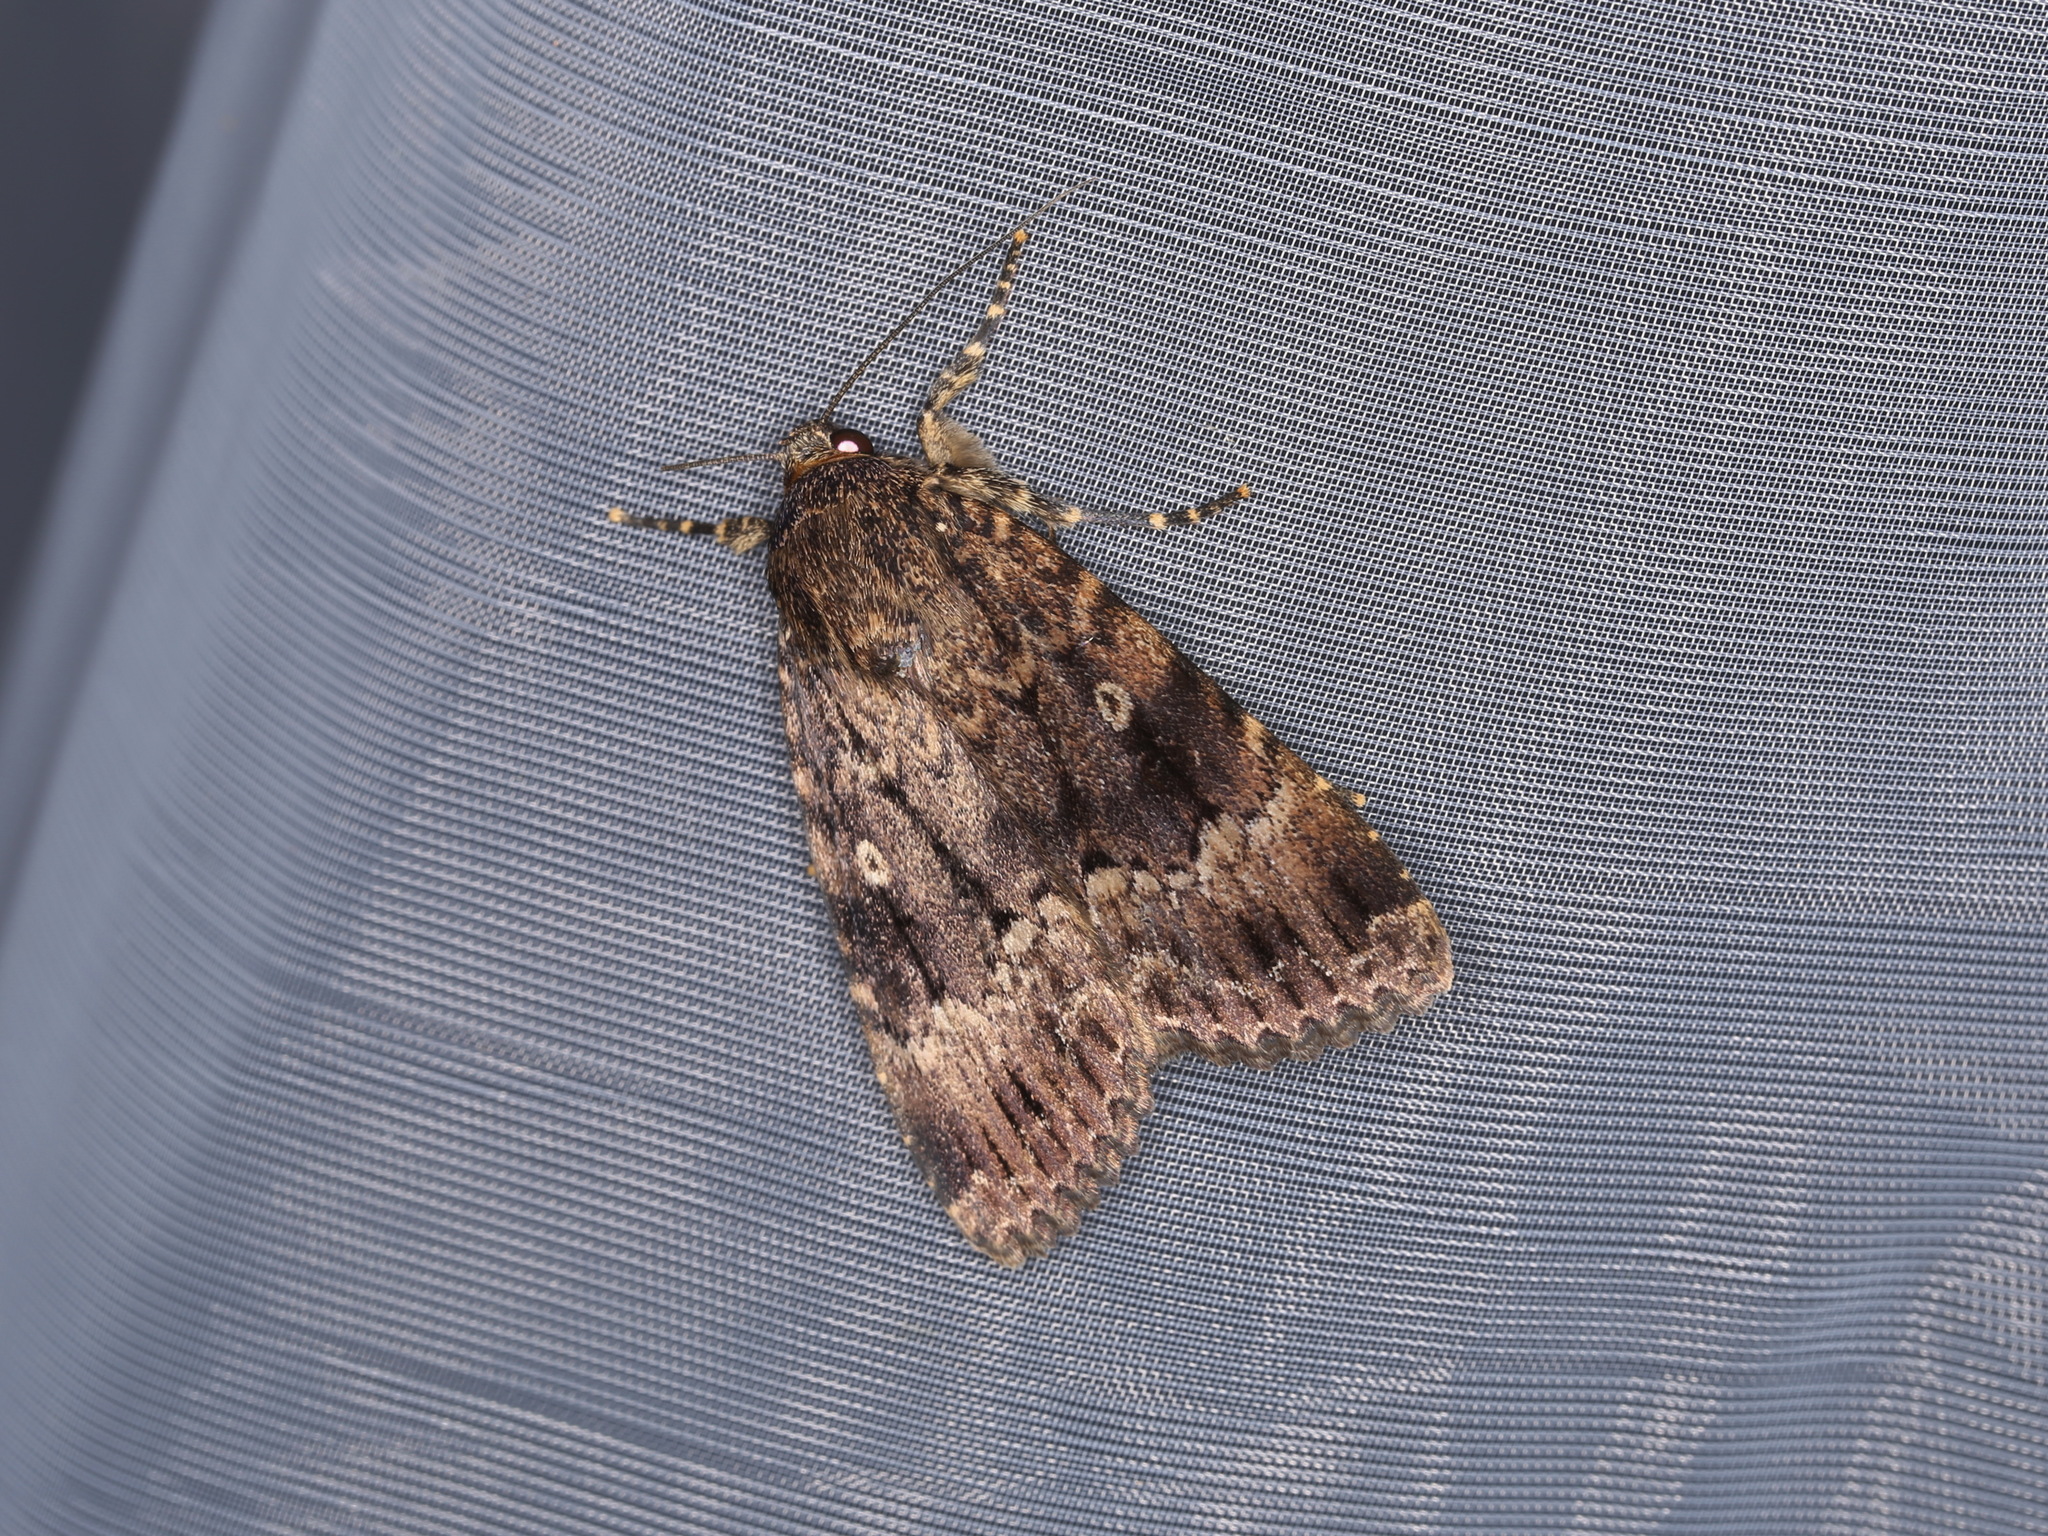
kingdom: Animalia
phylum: Arthropoda
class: Insecta
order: Lepidoptera
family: Noctuidae
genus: Amphipyra
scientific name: Amphipyra berbera
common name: Svensson's copper underwing
